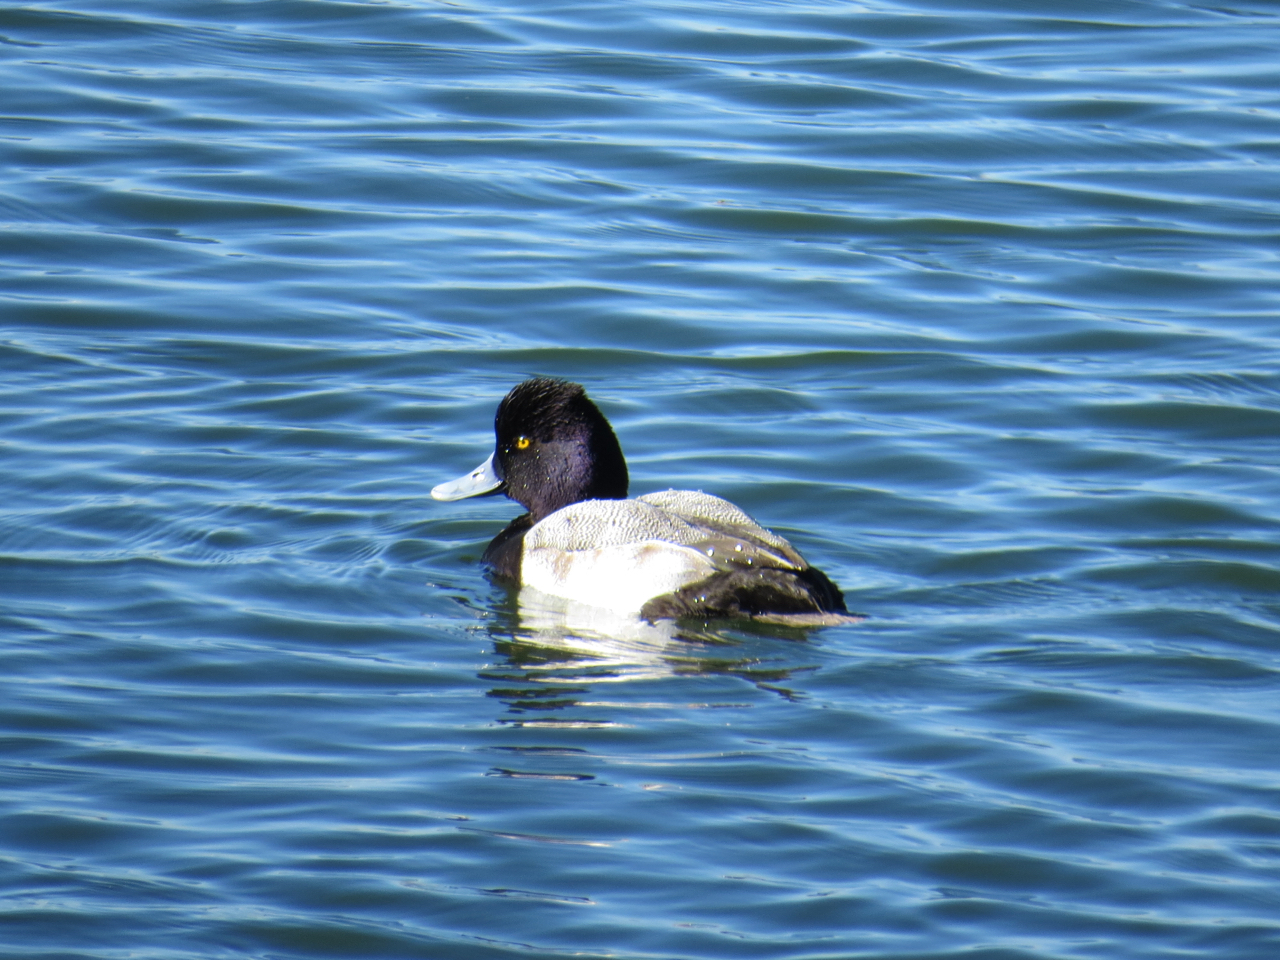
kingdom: Animalia
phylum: Chordata
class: Aves
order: Anseriformes
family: Anatidae
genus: Aythya
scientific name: Aythya affinis
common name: Lesser scaup
